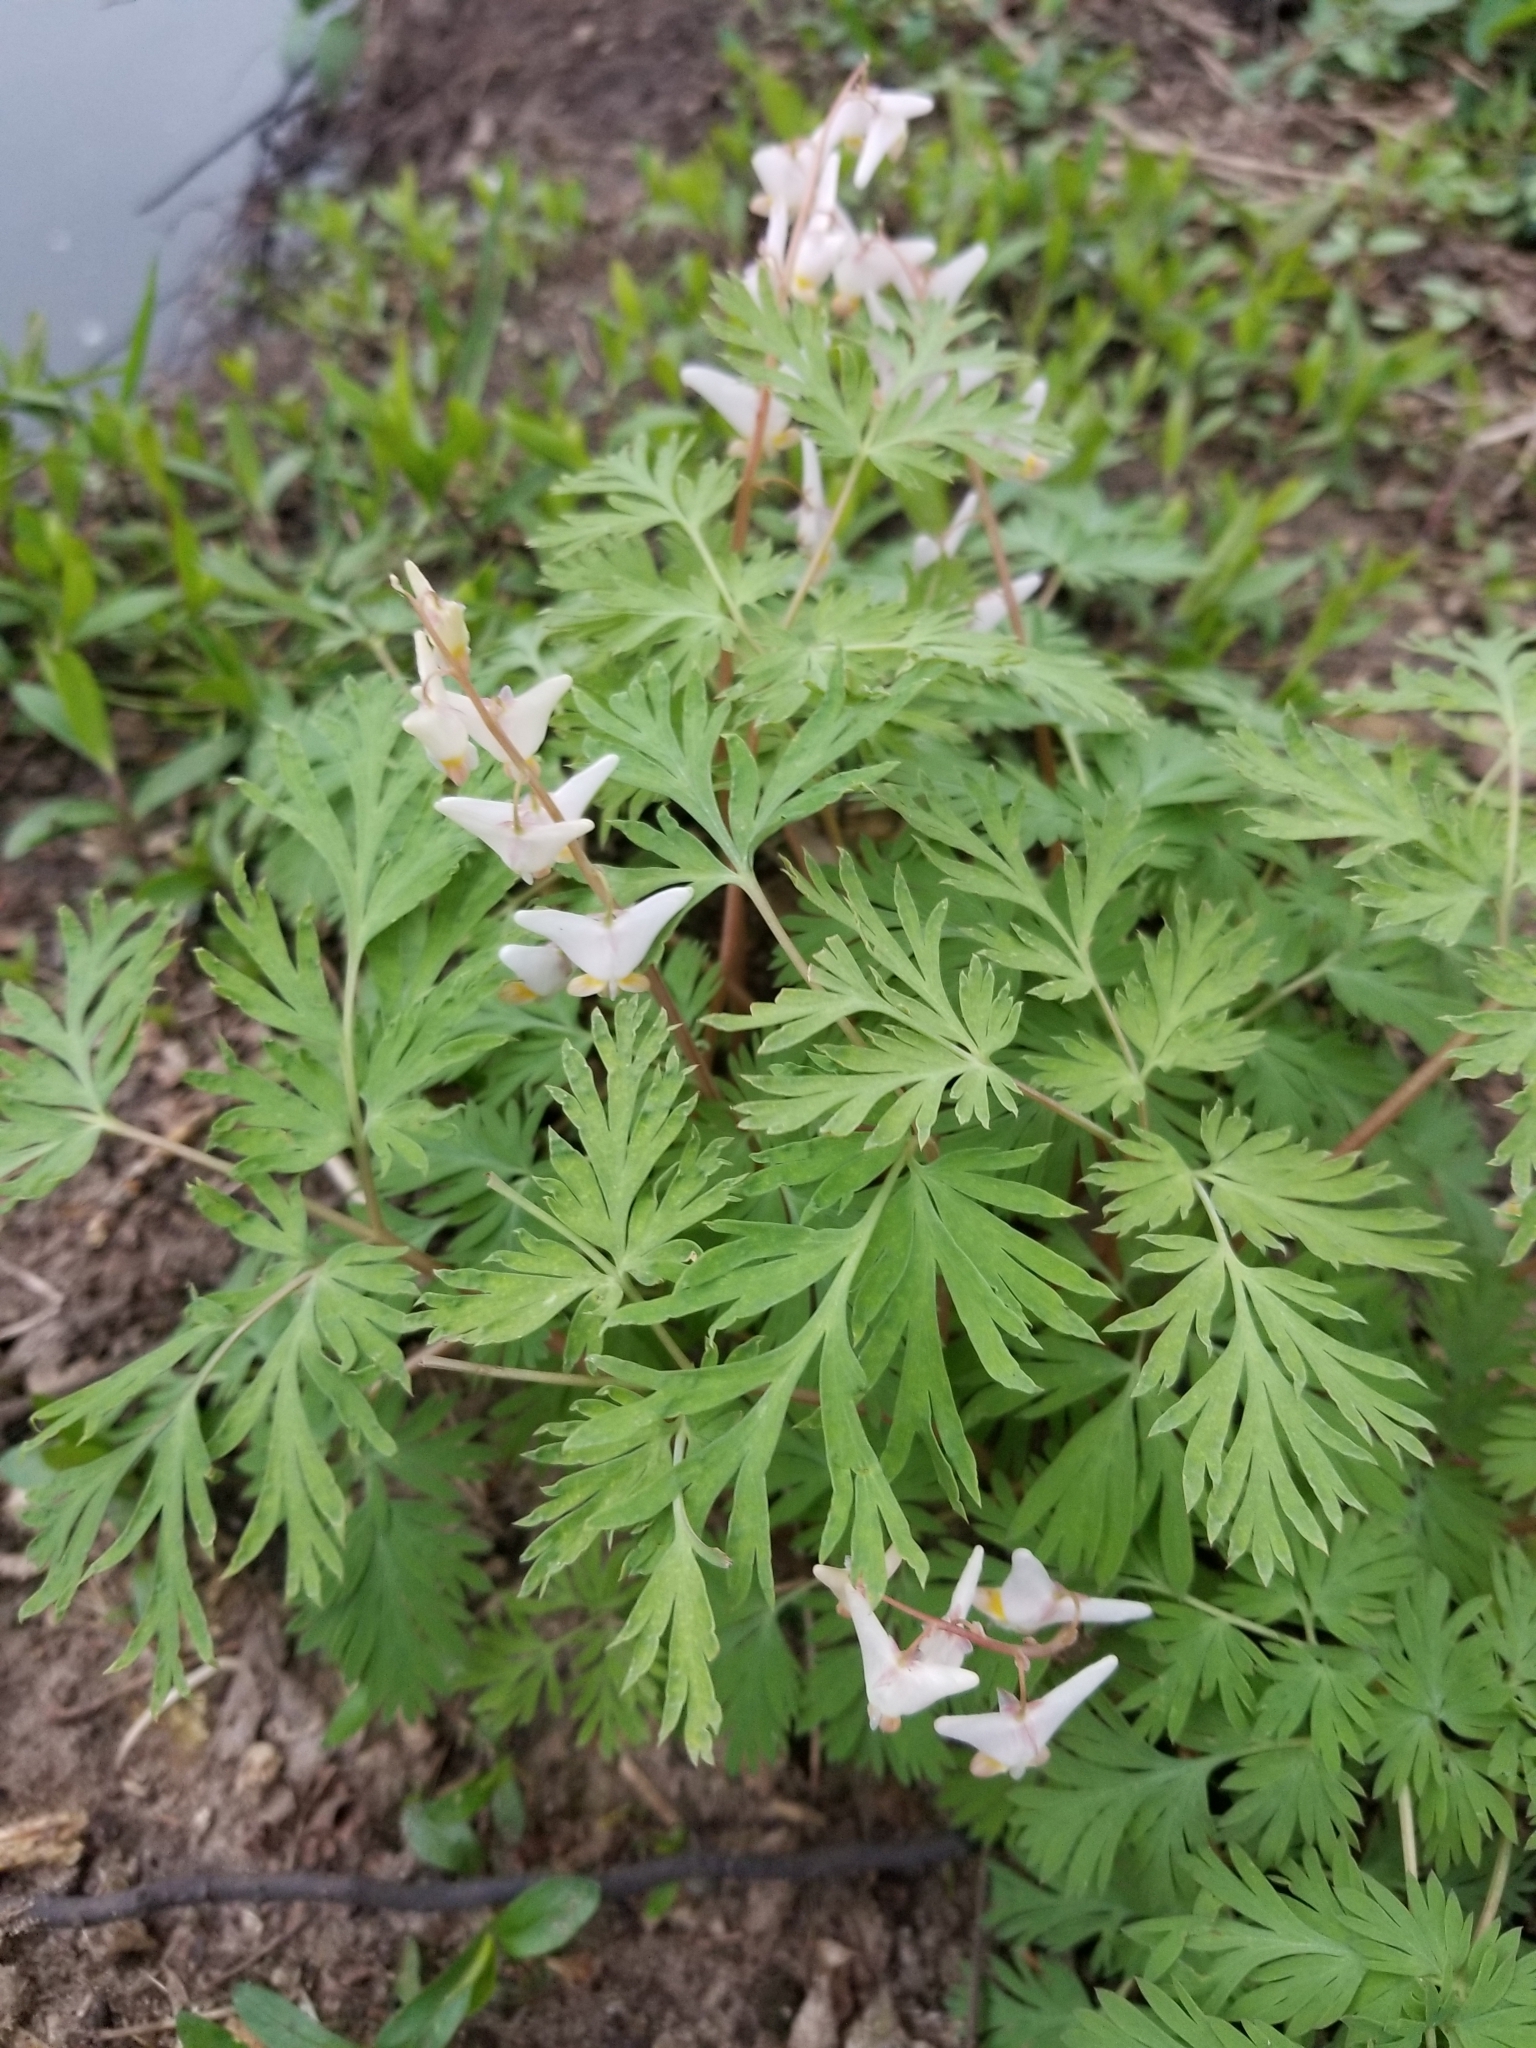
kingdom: Plantae
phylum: Tracheophyta
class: Magnoliopsida
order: Ranunculales
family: Papaveraceae
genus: Dicentra
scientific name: Dicentra cucullaria
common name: Dutchman's breeches
